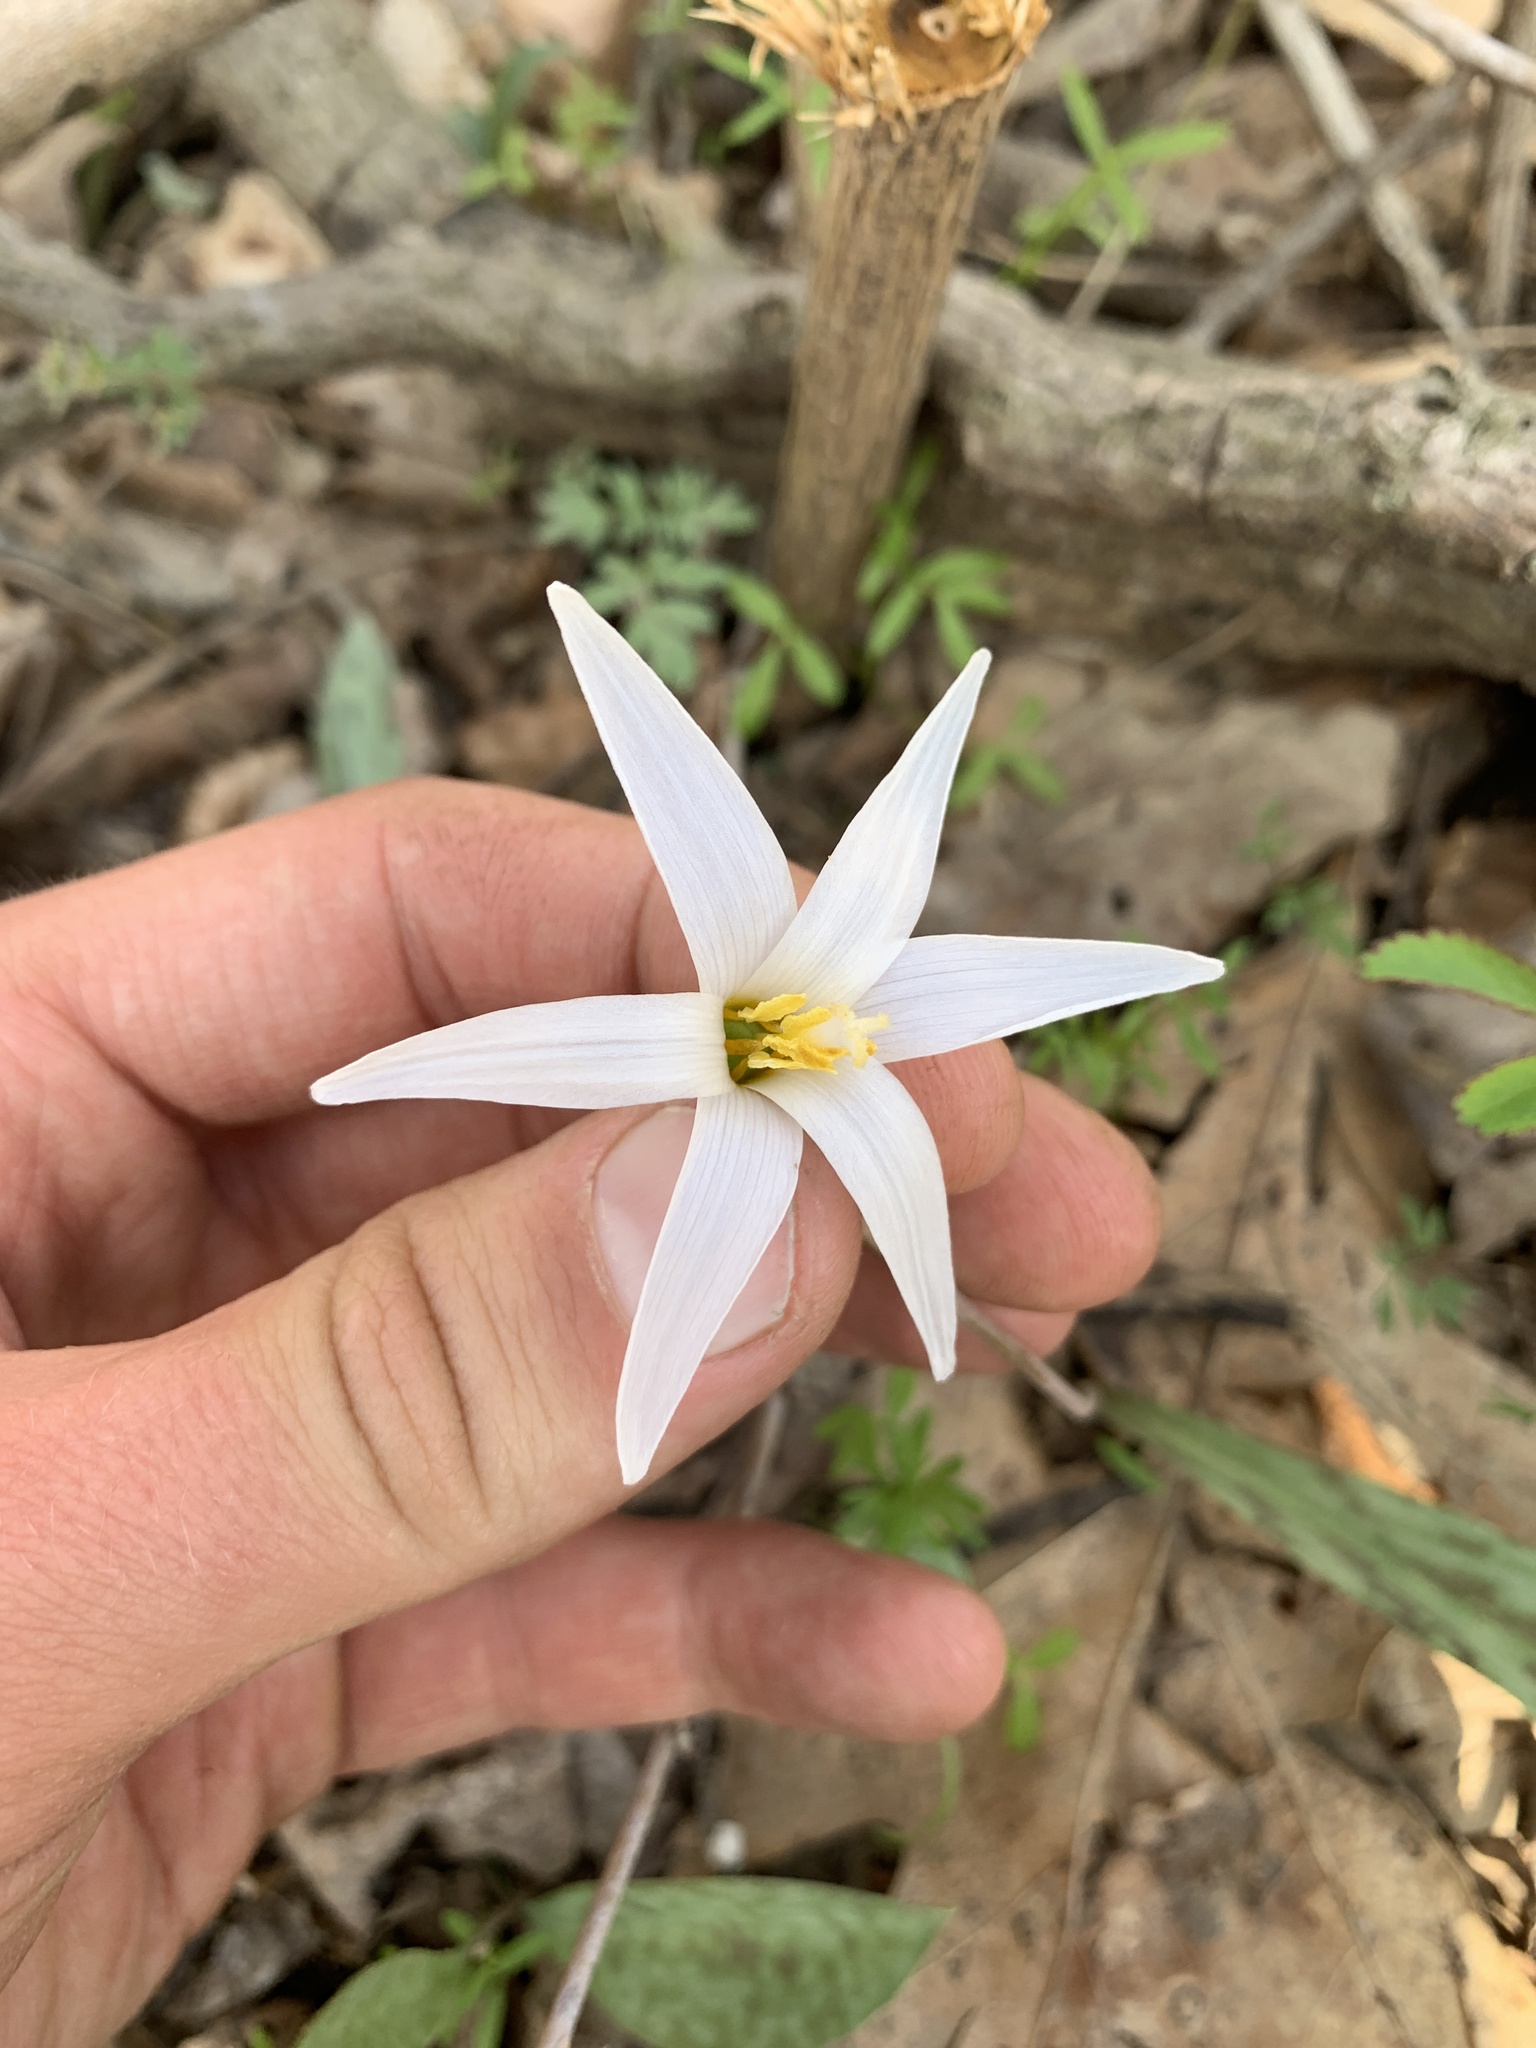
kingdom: Plantae
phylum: Tracheophyta
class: Liliopsida
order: Liliales
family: Liliaceae
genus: Erythronium
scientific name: Erythronium albidum
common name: White trout-lily
